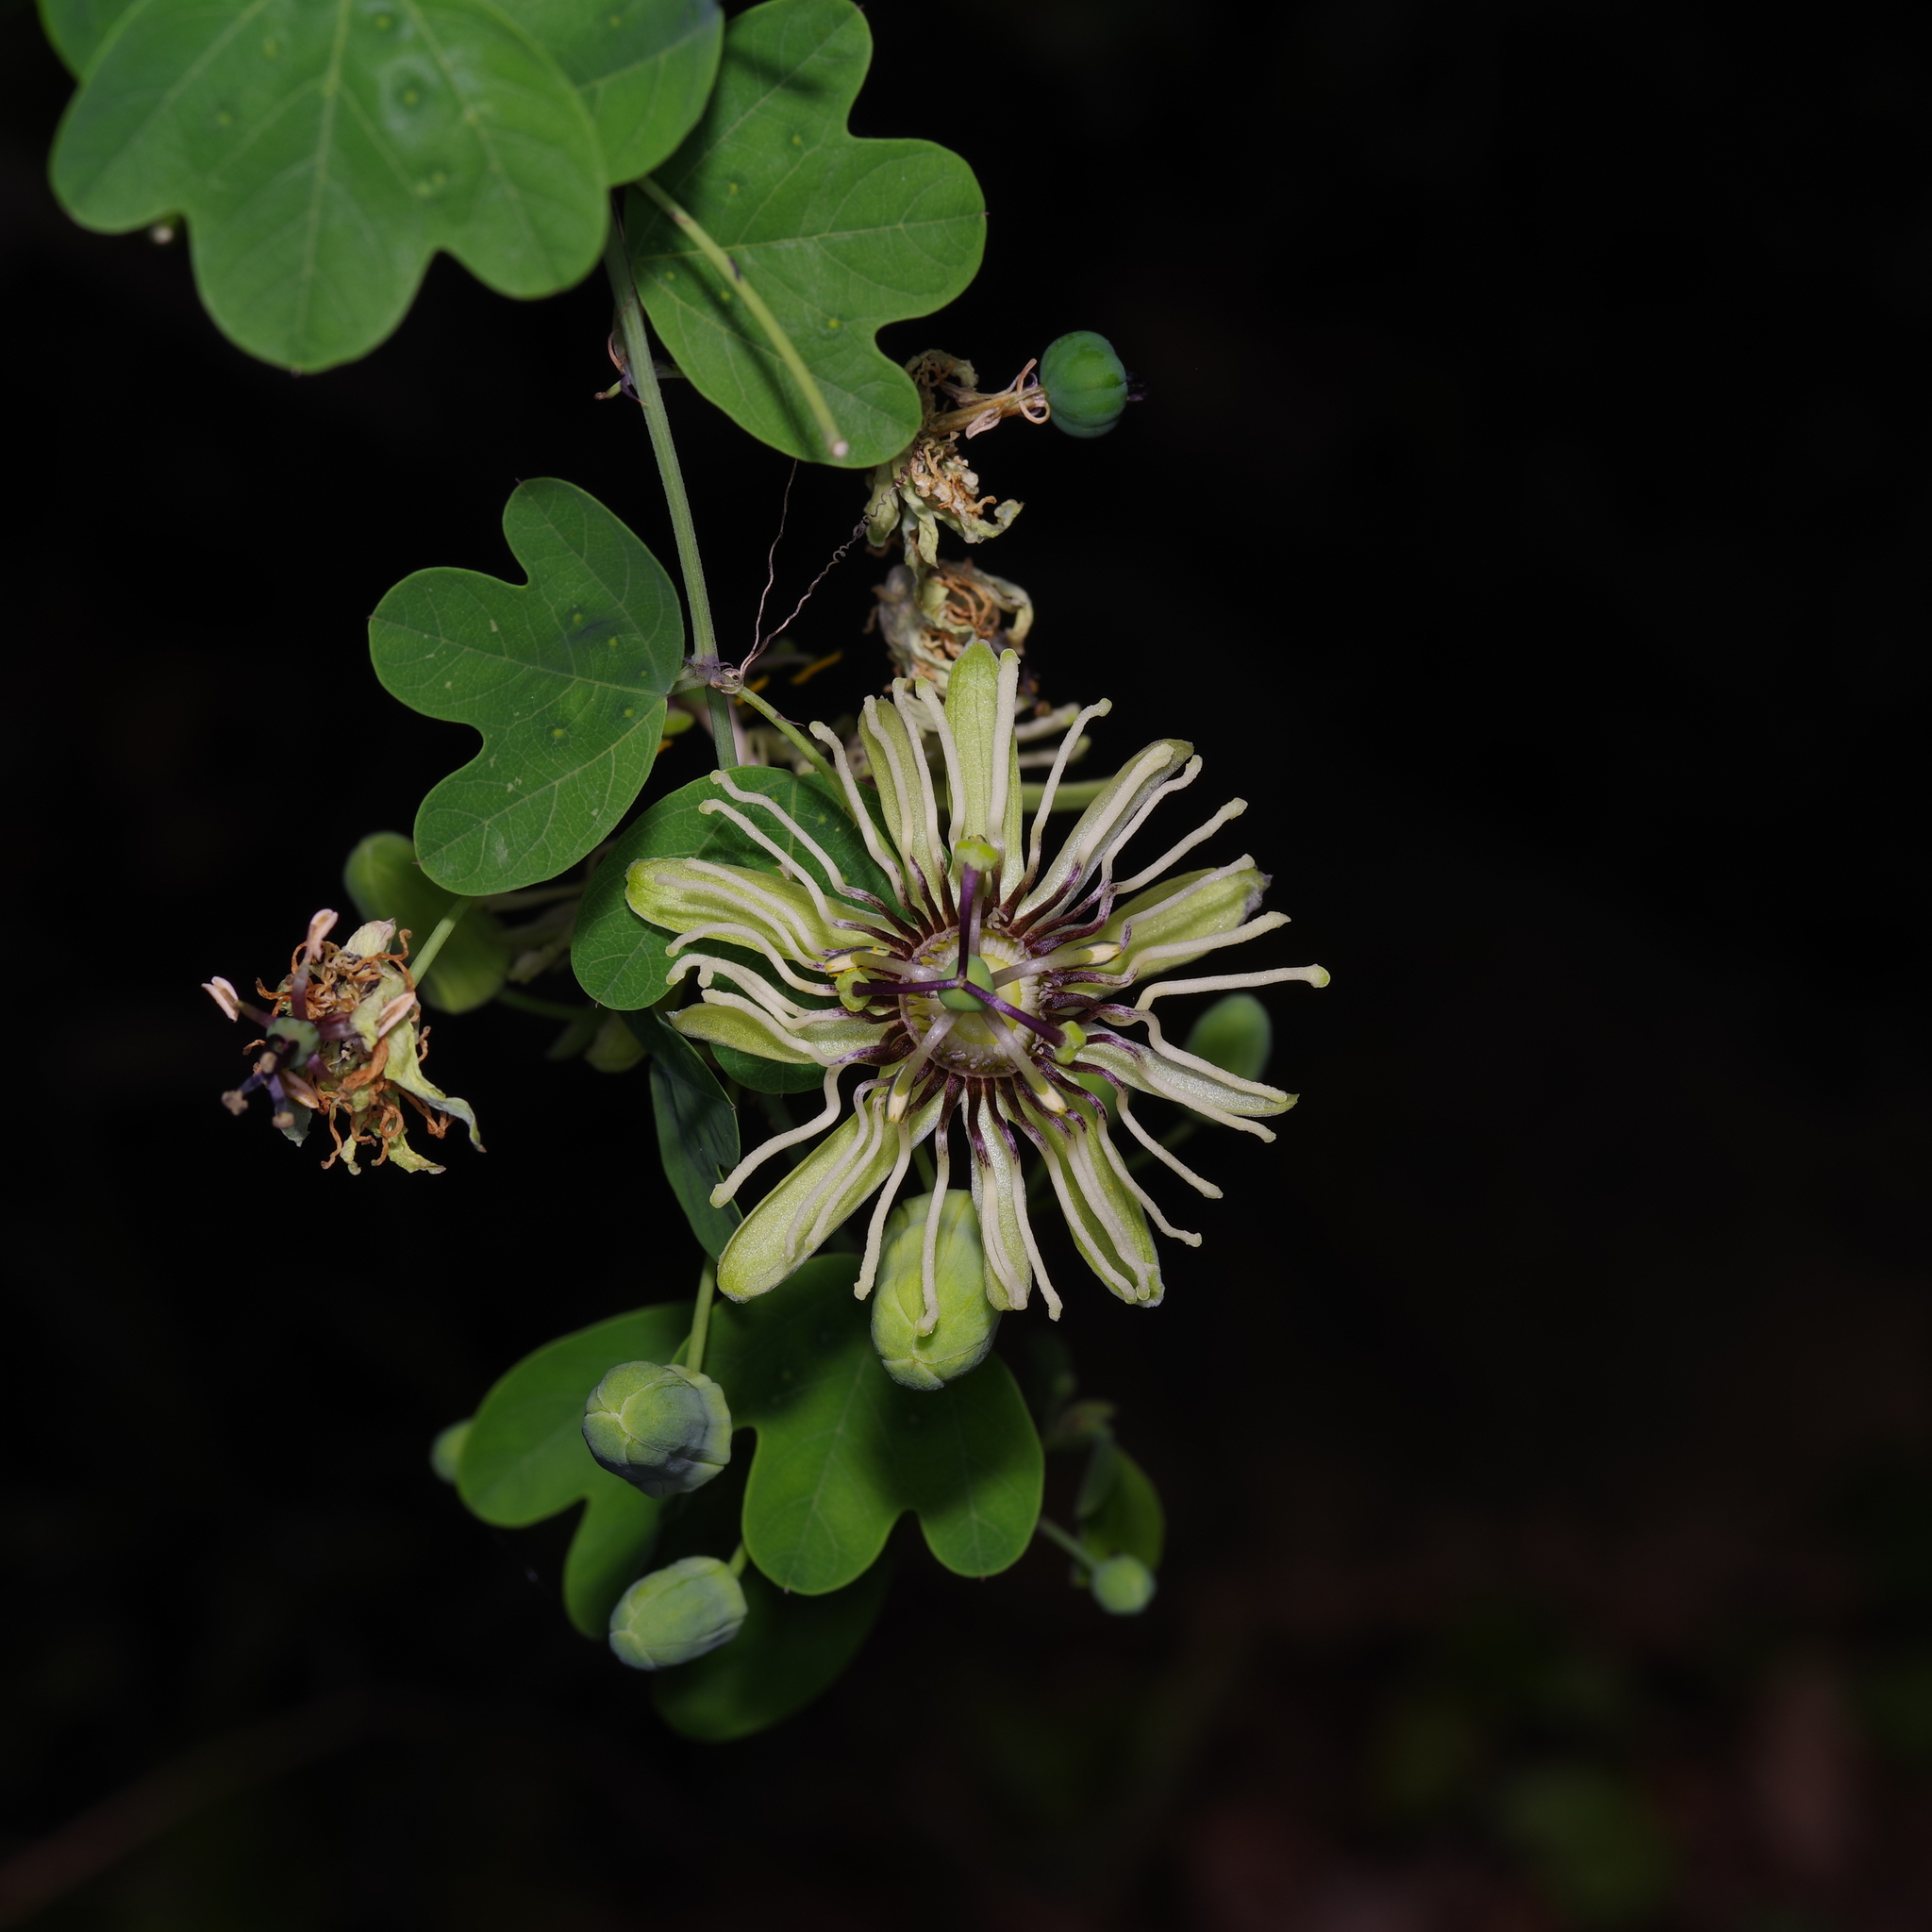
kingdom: Plantae
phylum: Tracheophyta
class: Magnoliopsida
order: Malpighiales
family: Passifloraceae
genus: Passiflora
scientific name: Passiflora affinis
